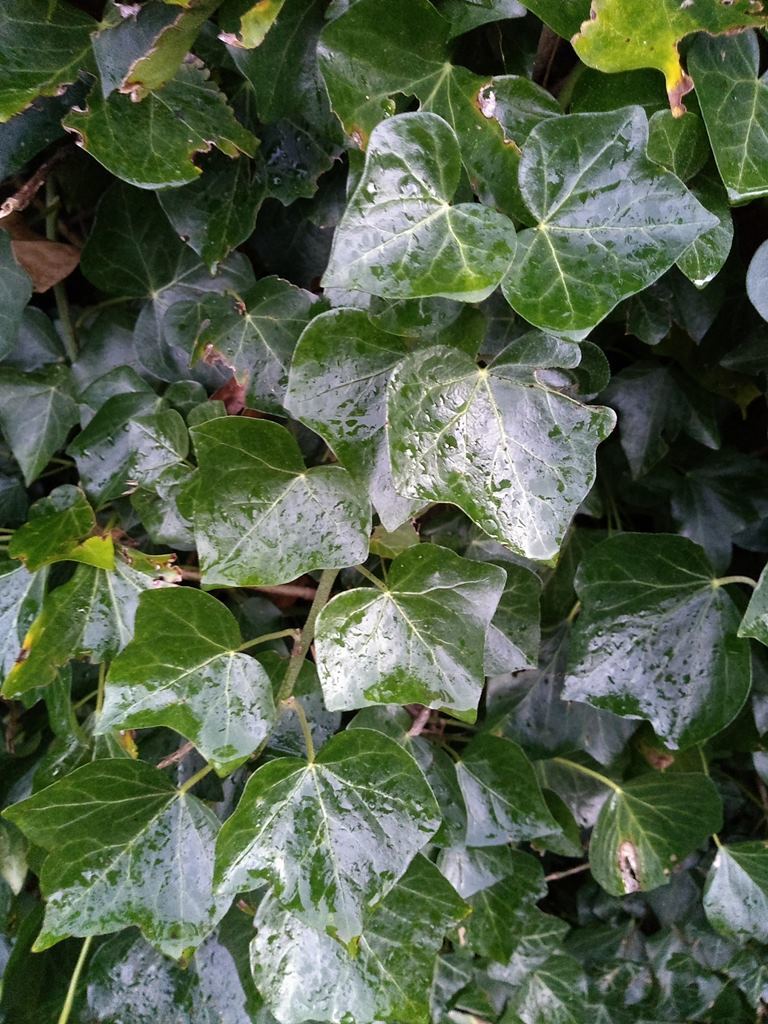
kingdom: Plantae
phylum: Tracheophyta
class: Magnoliopsida
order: Apiales
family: Araliaceae
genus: Hedera
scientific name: Hedera helix
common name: Ivy
